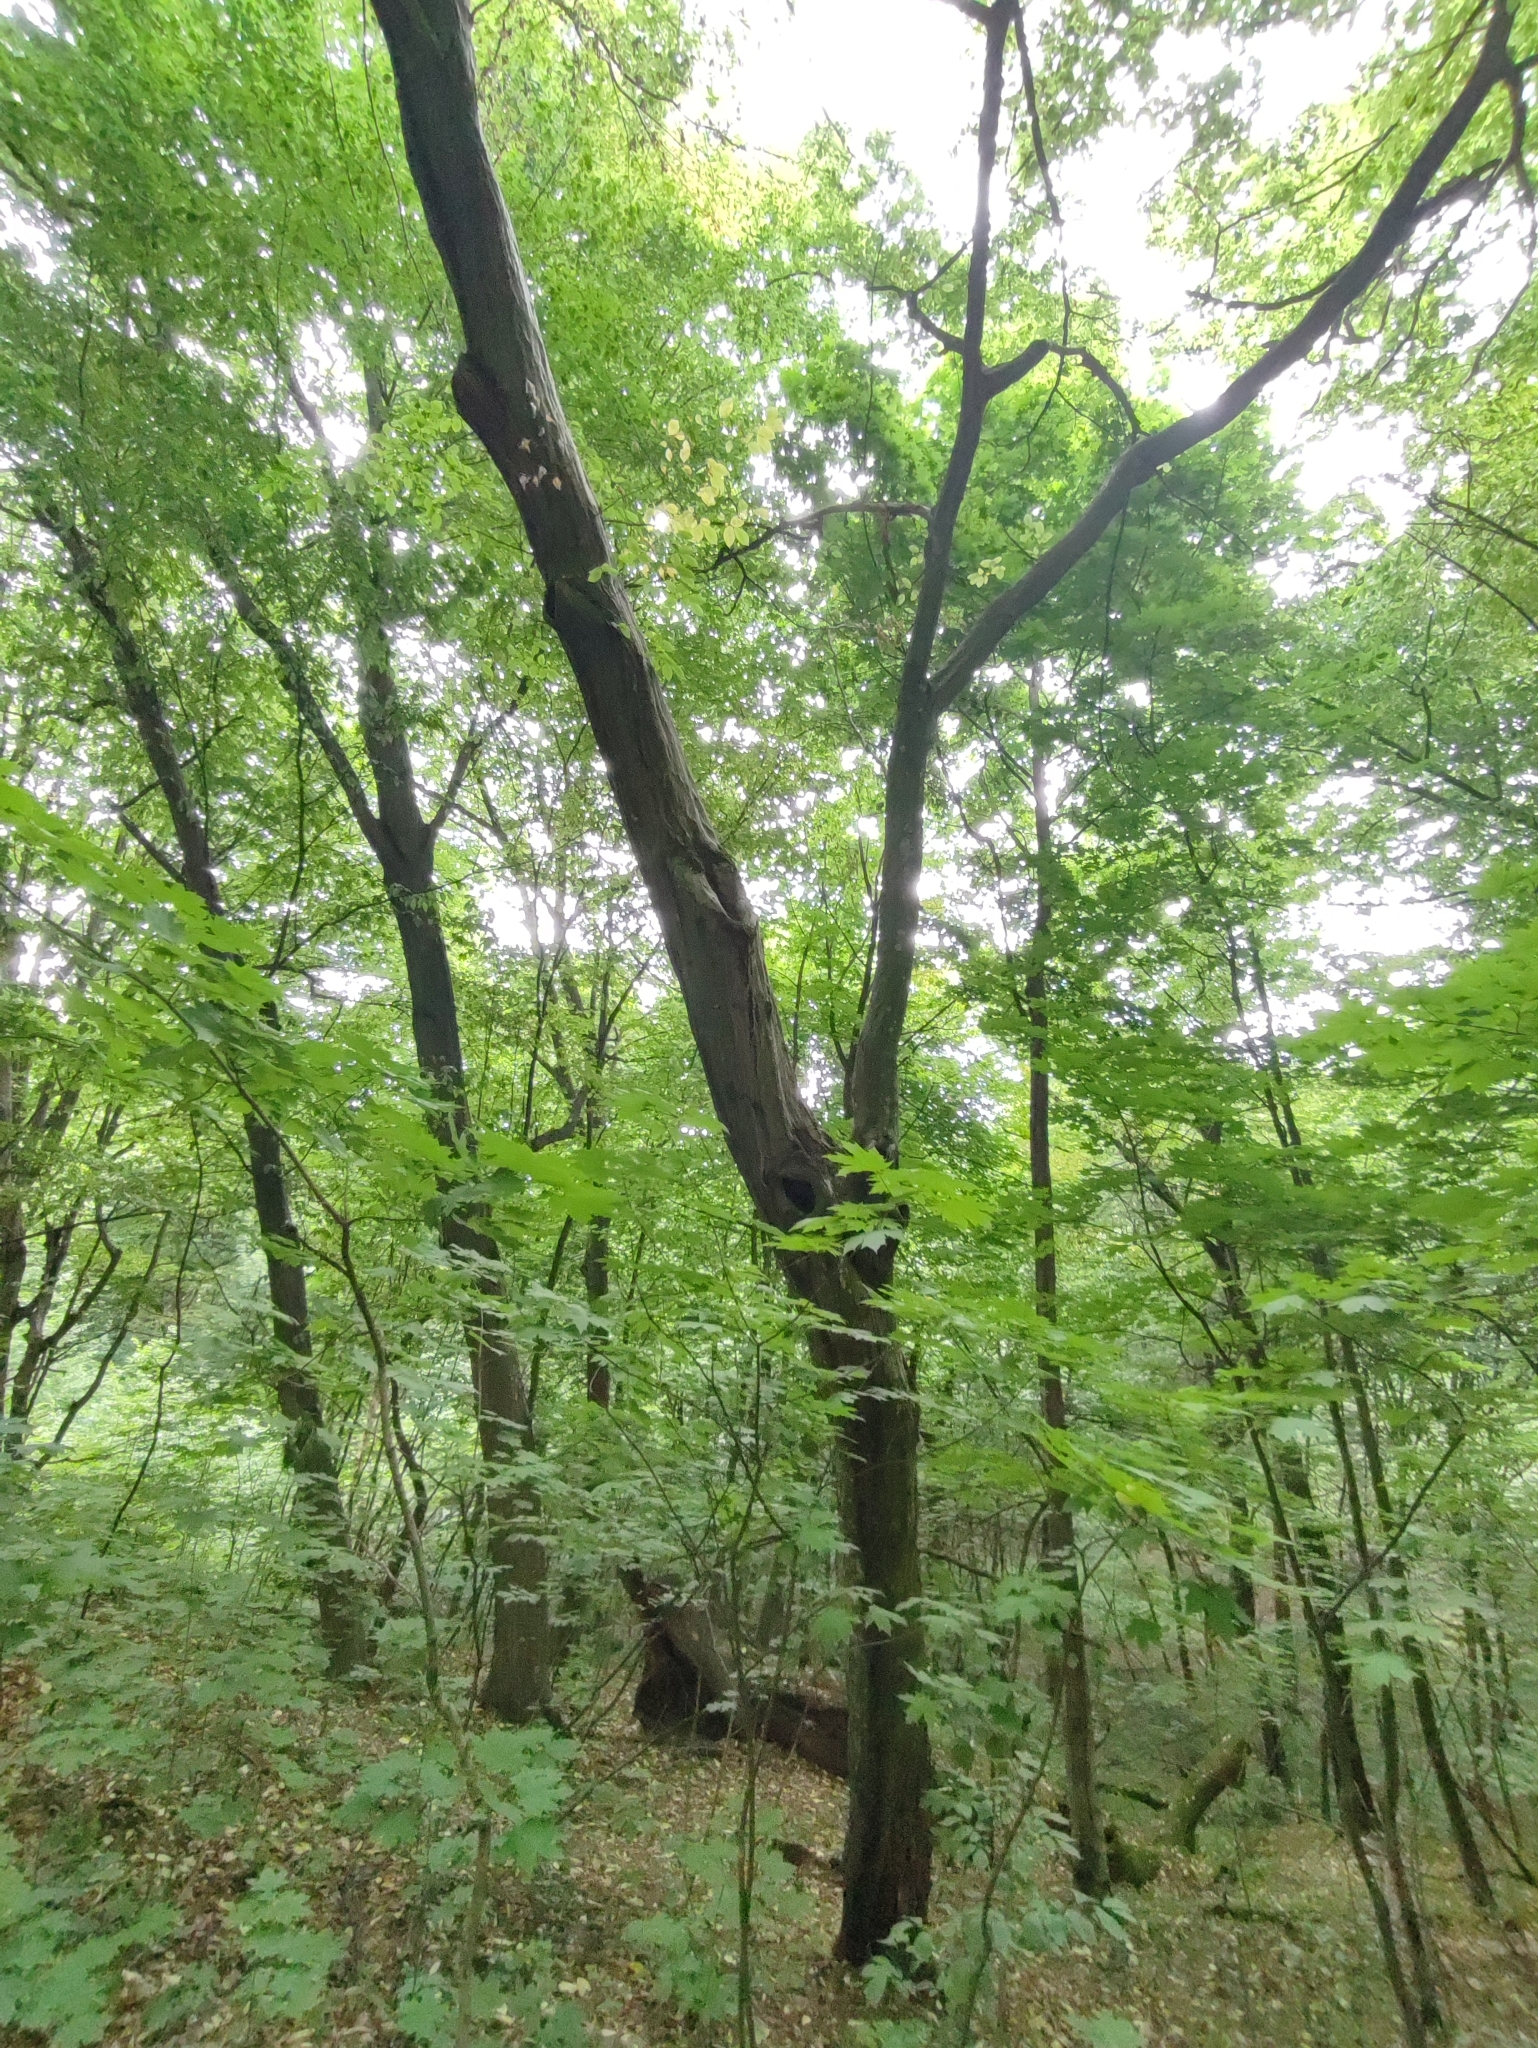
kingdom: Plantae
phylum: Tracheophyta
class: Magnoliopsida
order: Fagales
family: Betulaceae
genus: Carpinus
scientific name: Carpinus betulus
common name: Hornbeam
